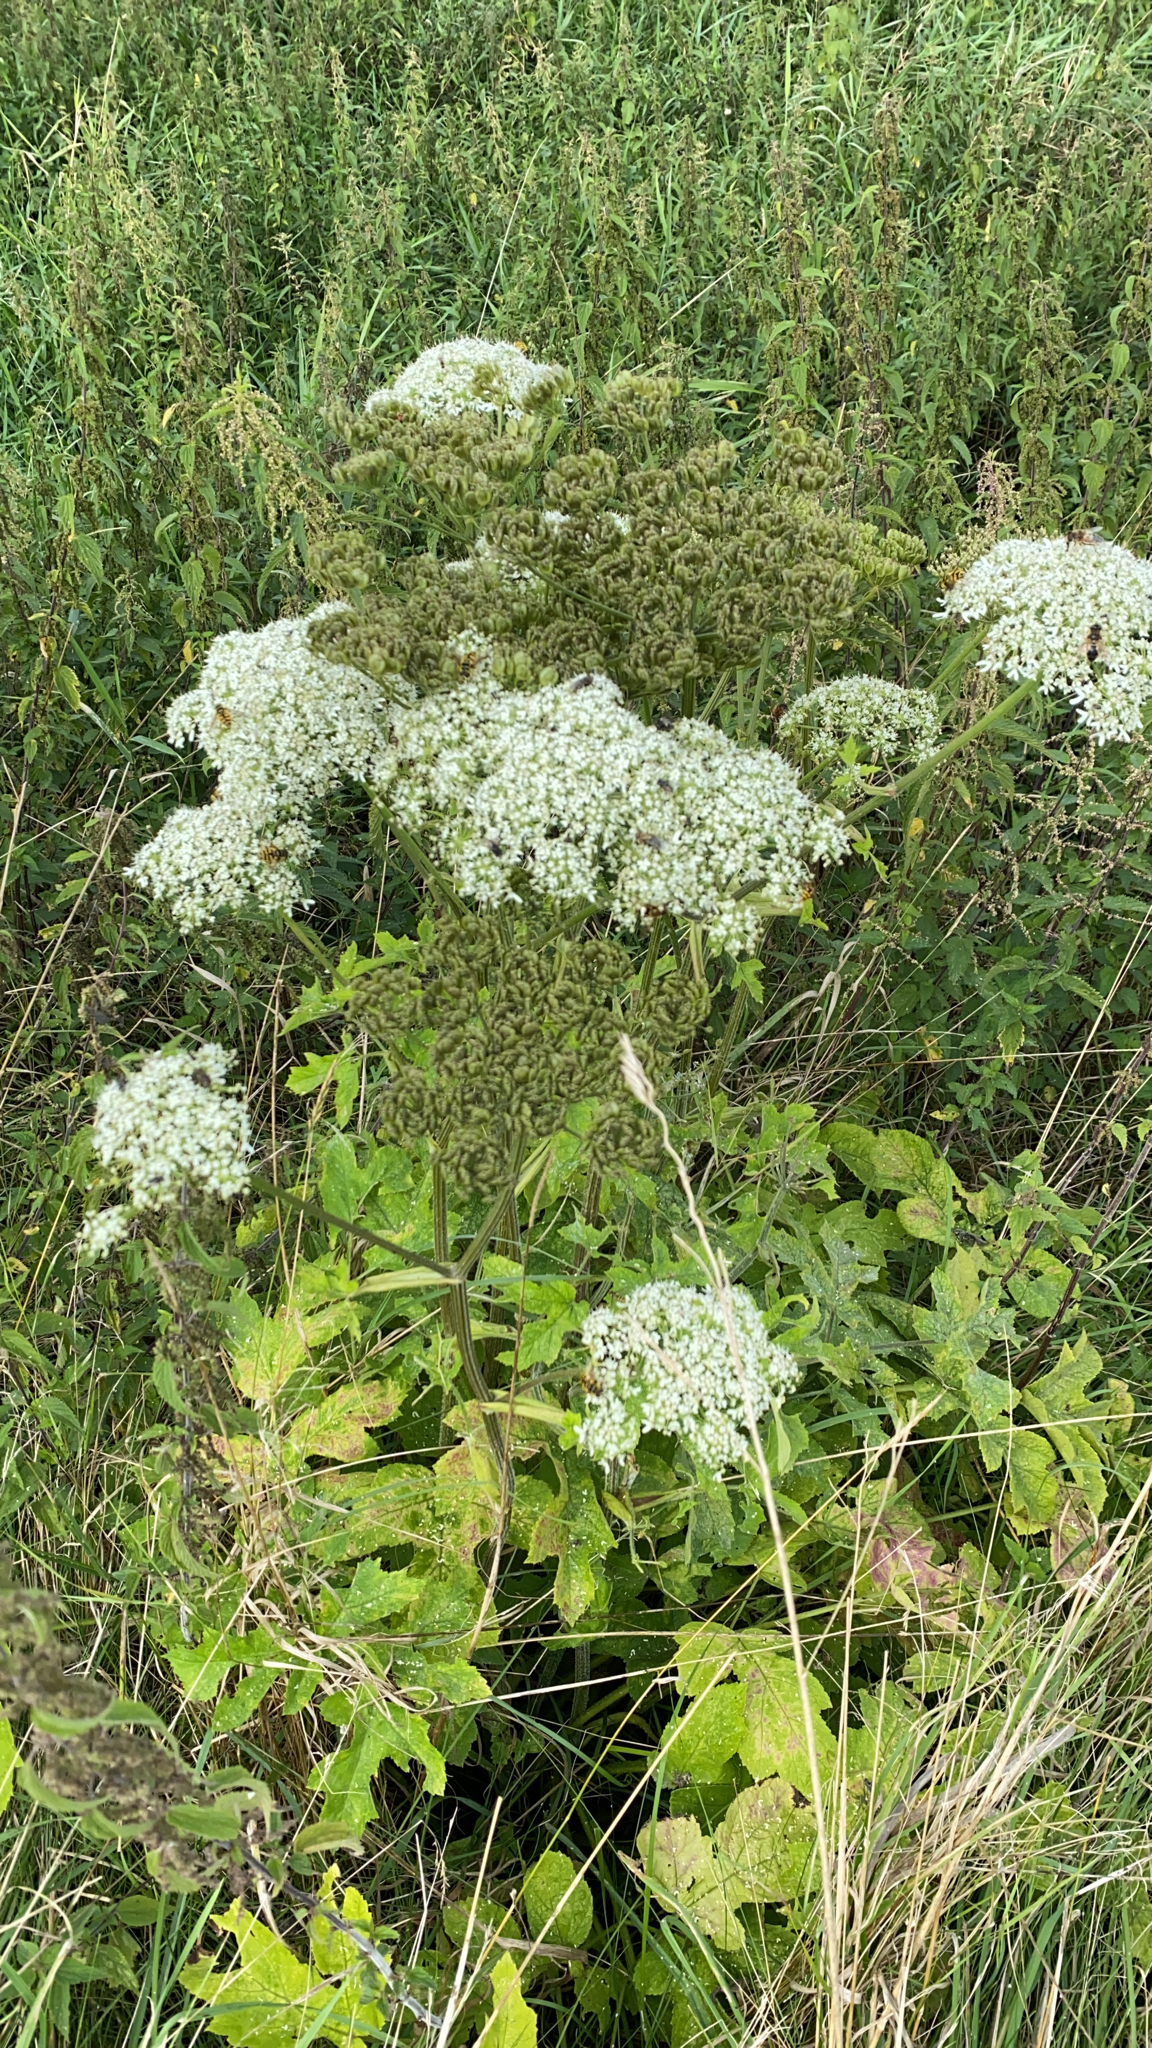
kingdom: Plantae
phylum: Tracheophyta
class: Magnoliopsida
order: Apiales
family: Apiaceae
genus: Heracleum
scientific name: Heracleum sphondylium
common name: Hogweed
